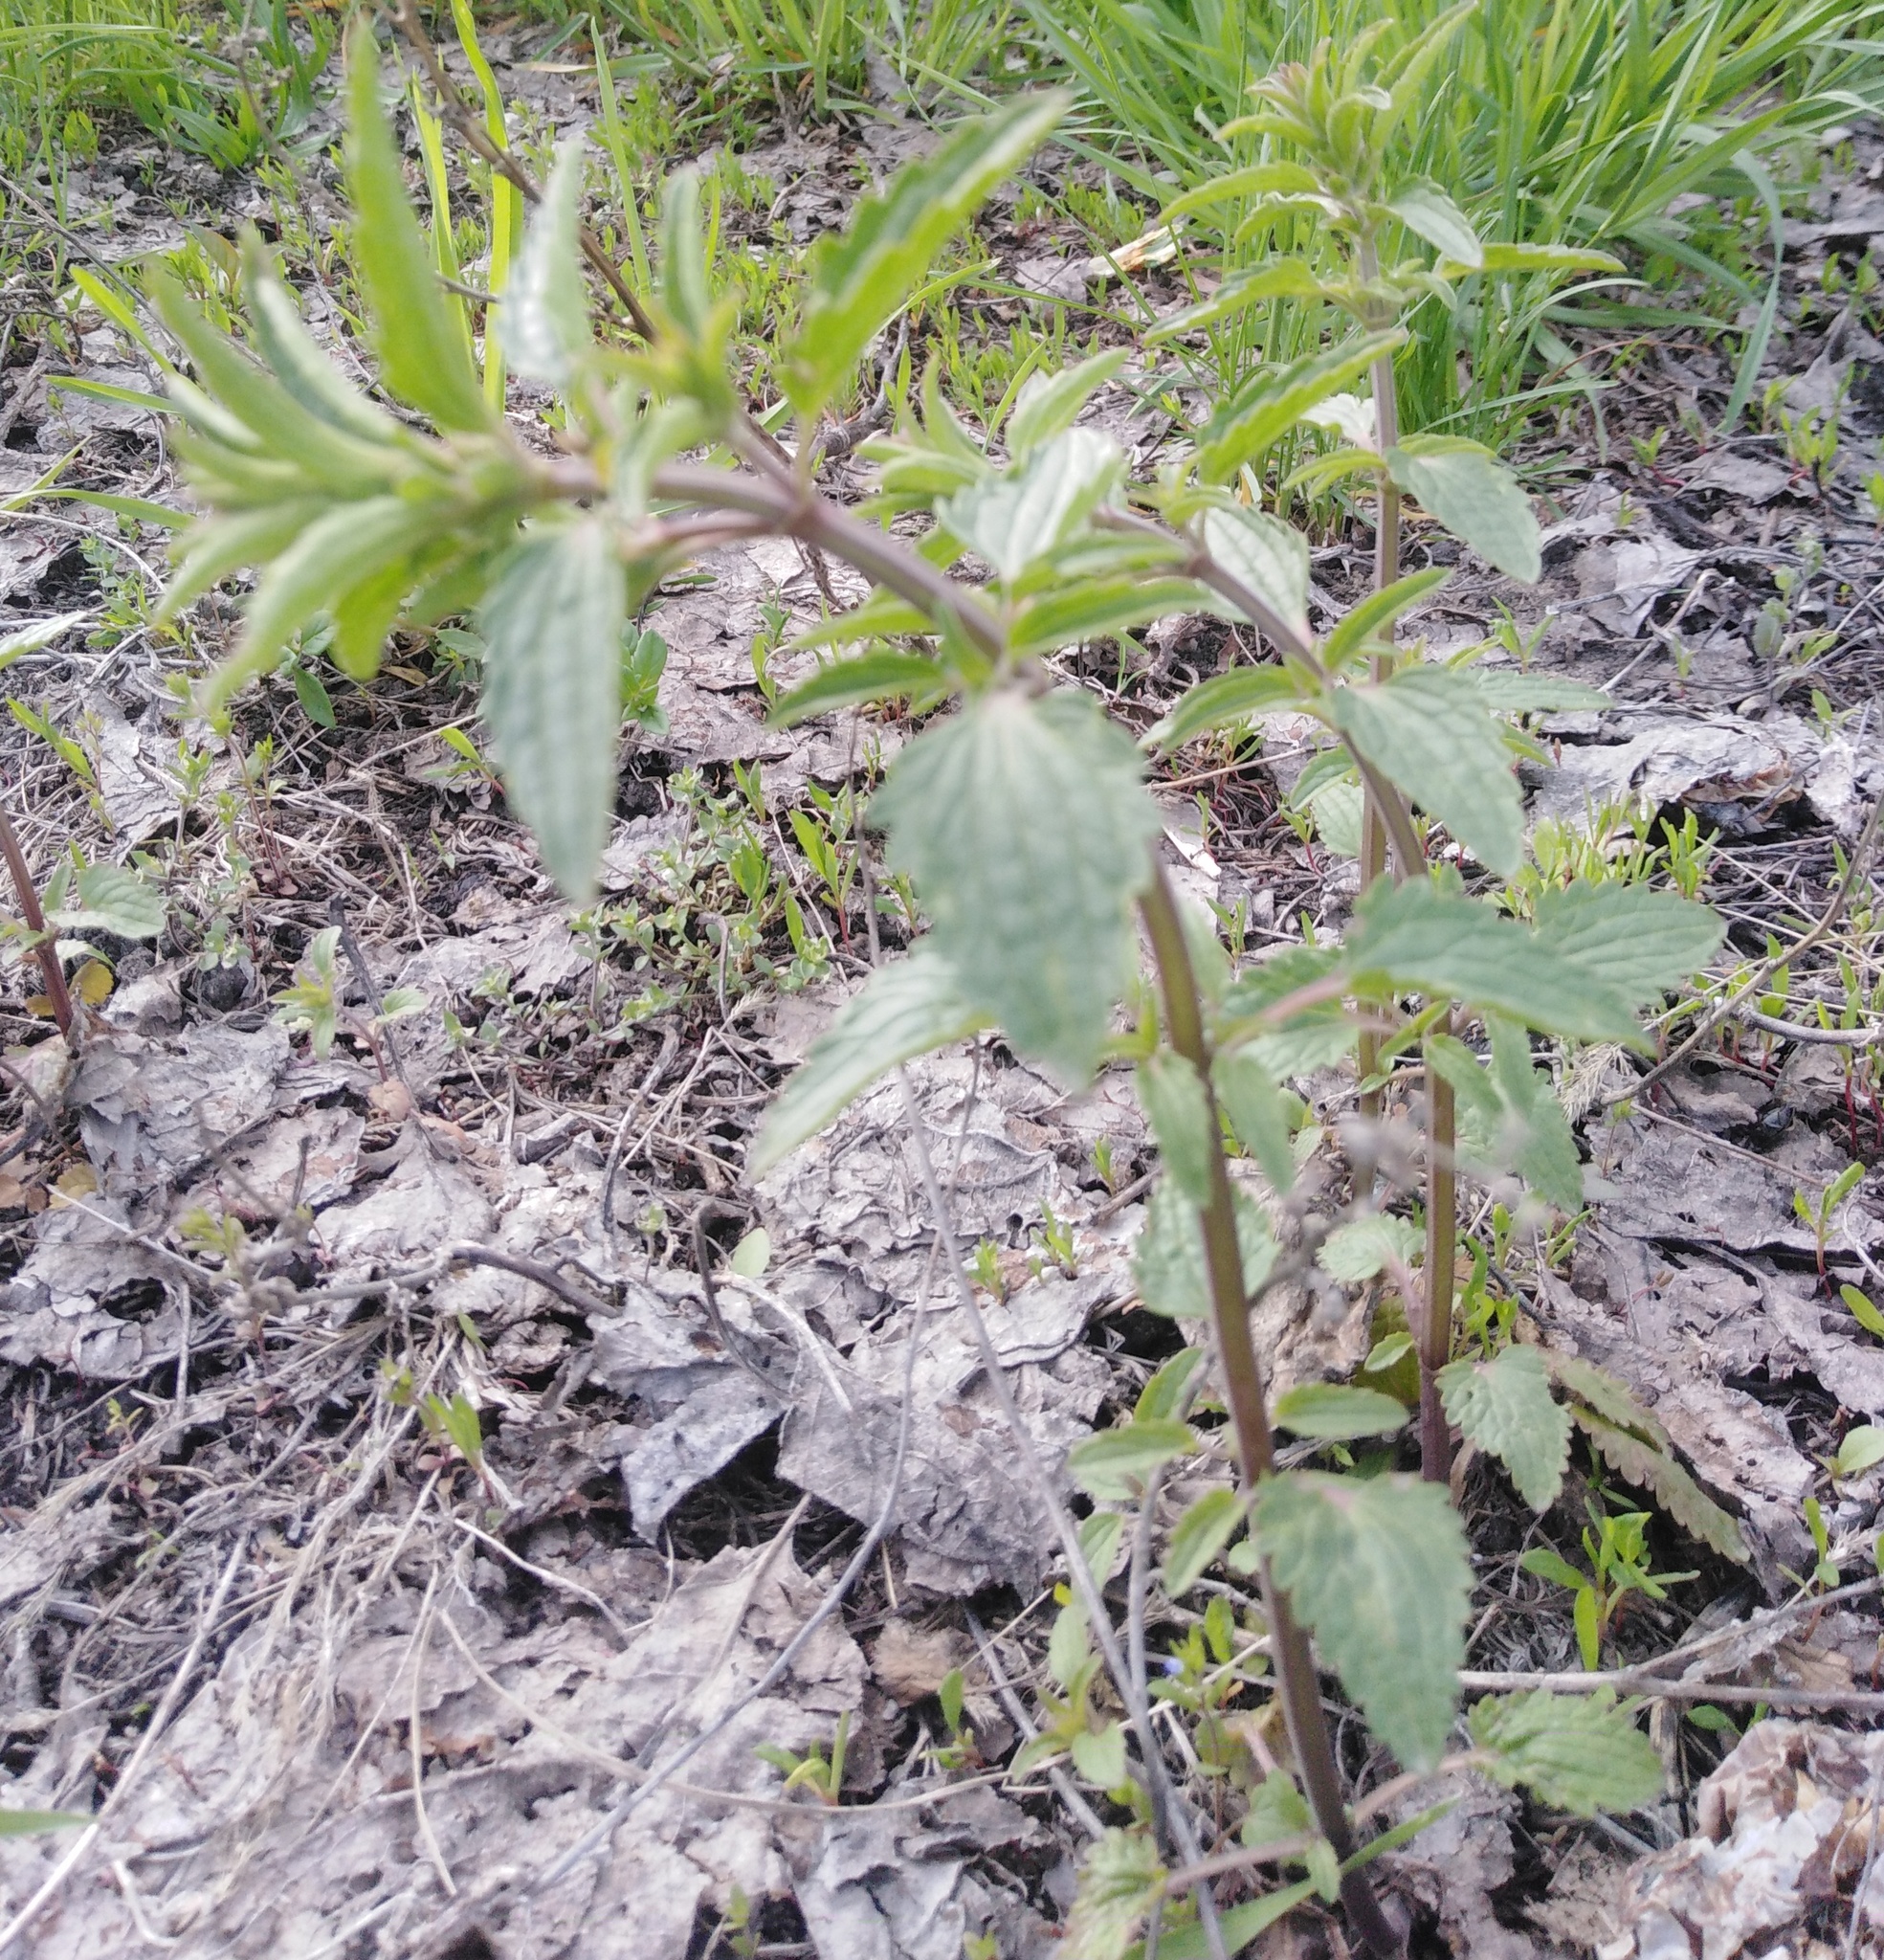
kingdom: Plantae
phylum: Tracheophyta
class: Magnoliopsida
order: Lamiales
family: Lamiaceae
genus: Dracocephalum
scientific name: Dracocephalum thymiflorum
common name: Thymeleaf dragonhead
